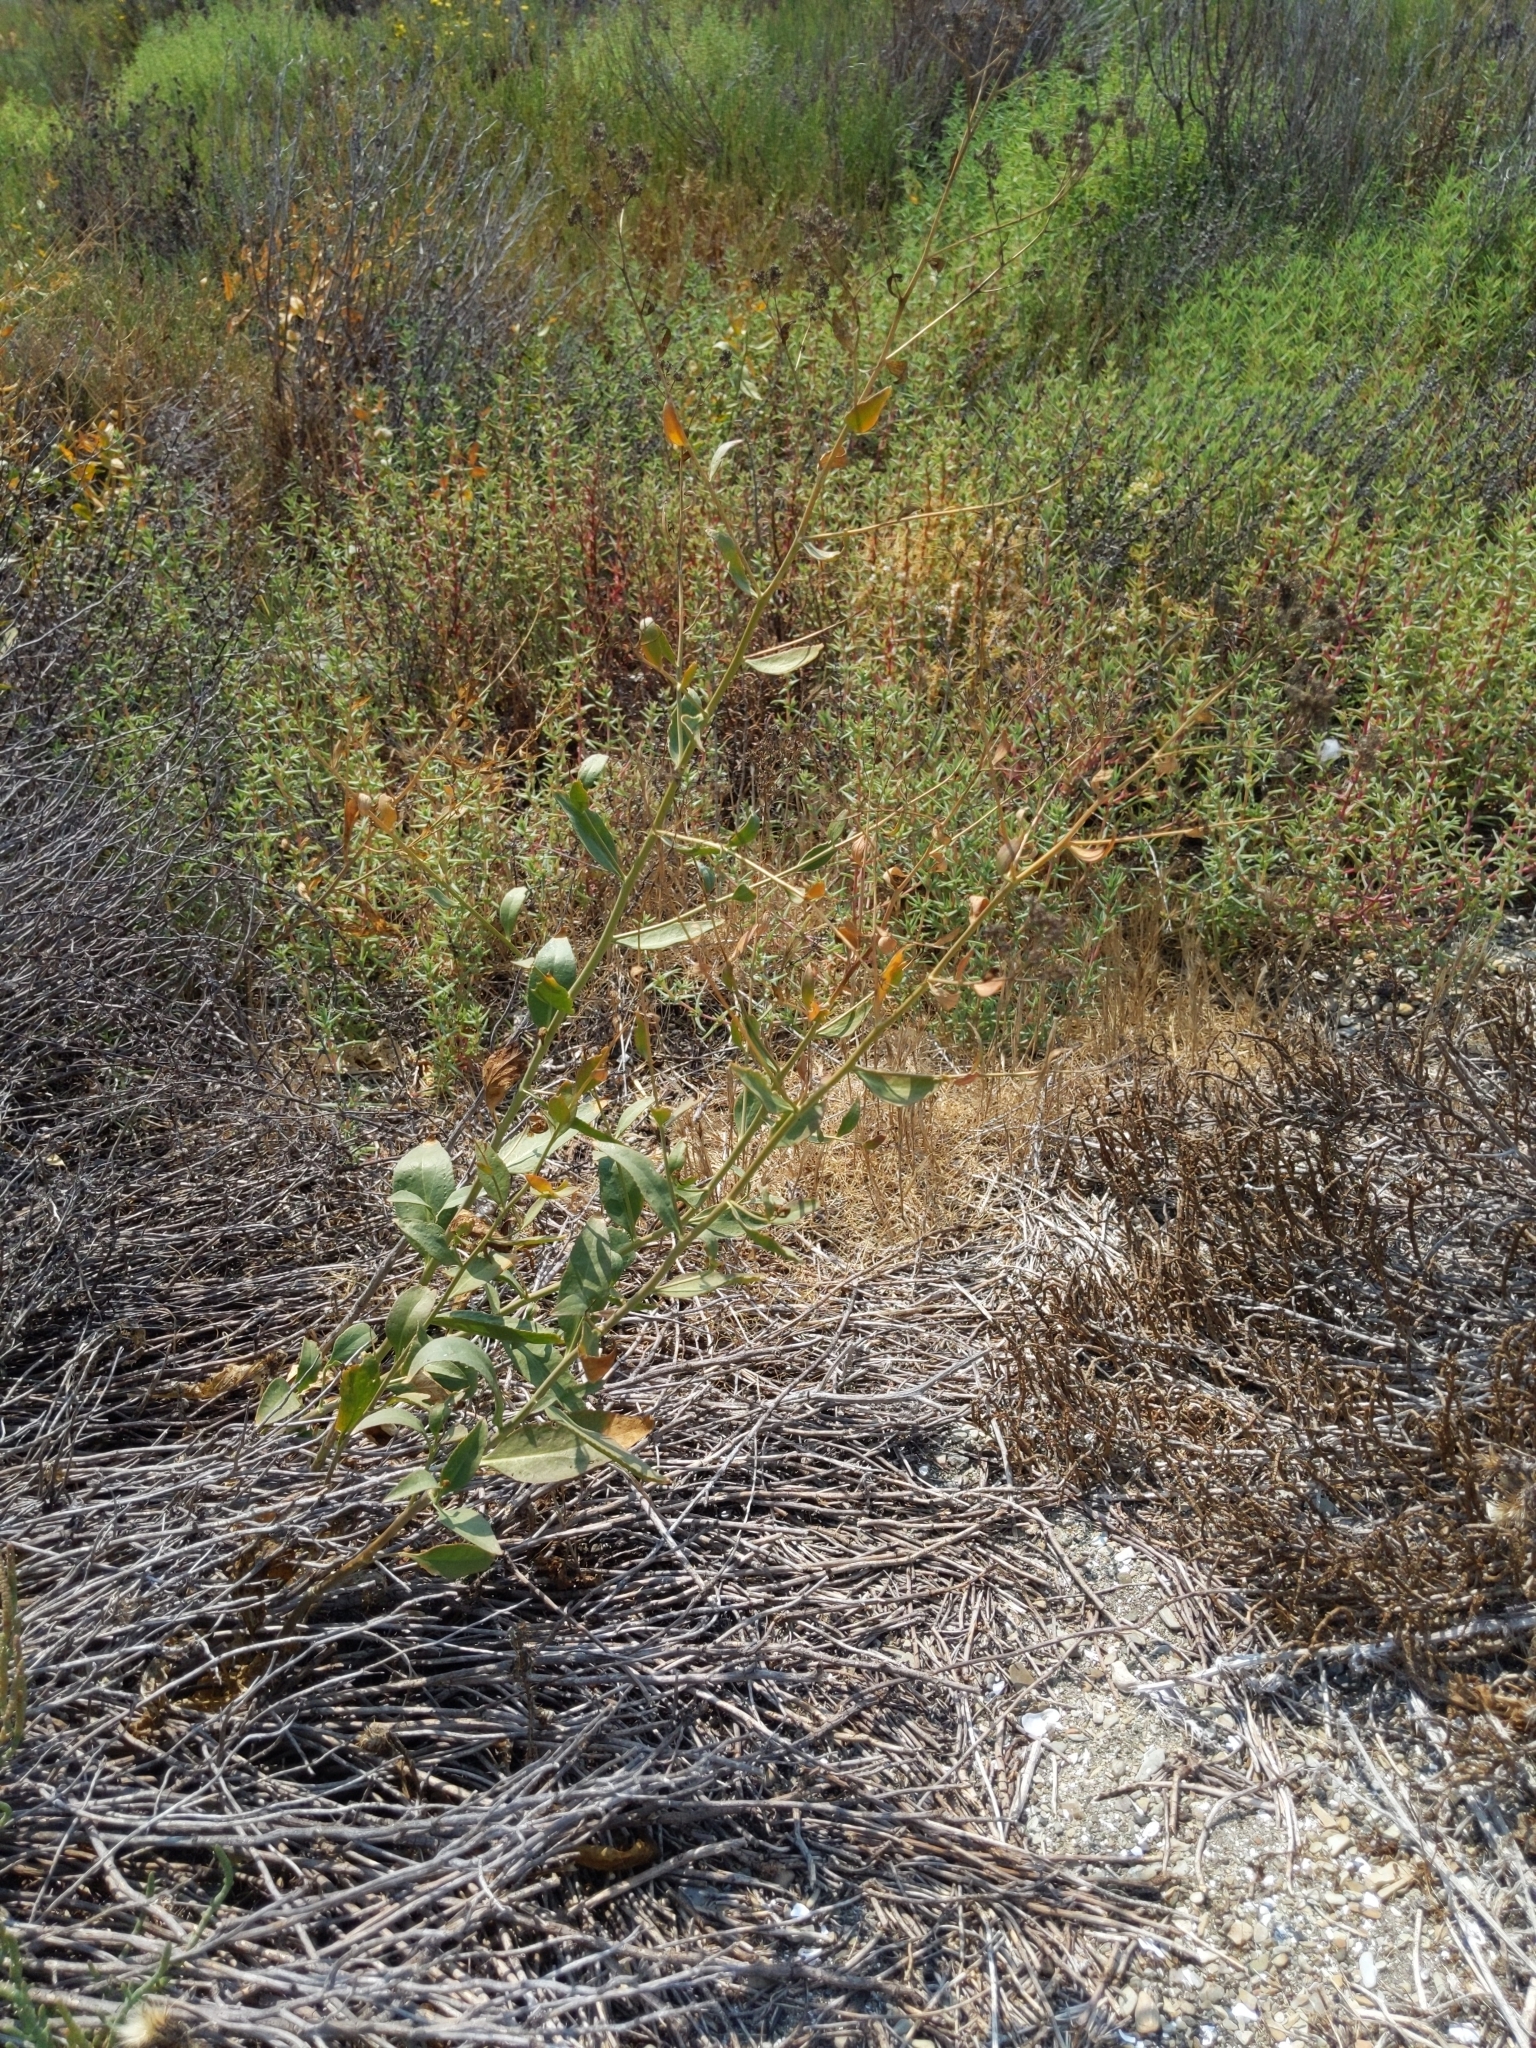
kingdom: Plantae
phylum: Tracheophyta
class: Magnoliopsida
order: Brassicales
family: Brassicaceae
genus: Lepidium
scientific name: Lepidium latifolium
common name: Dittander
